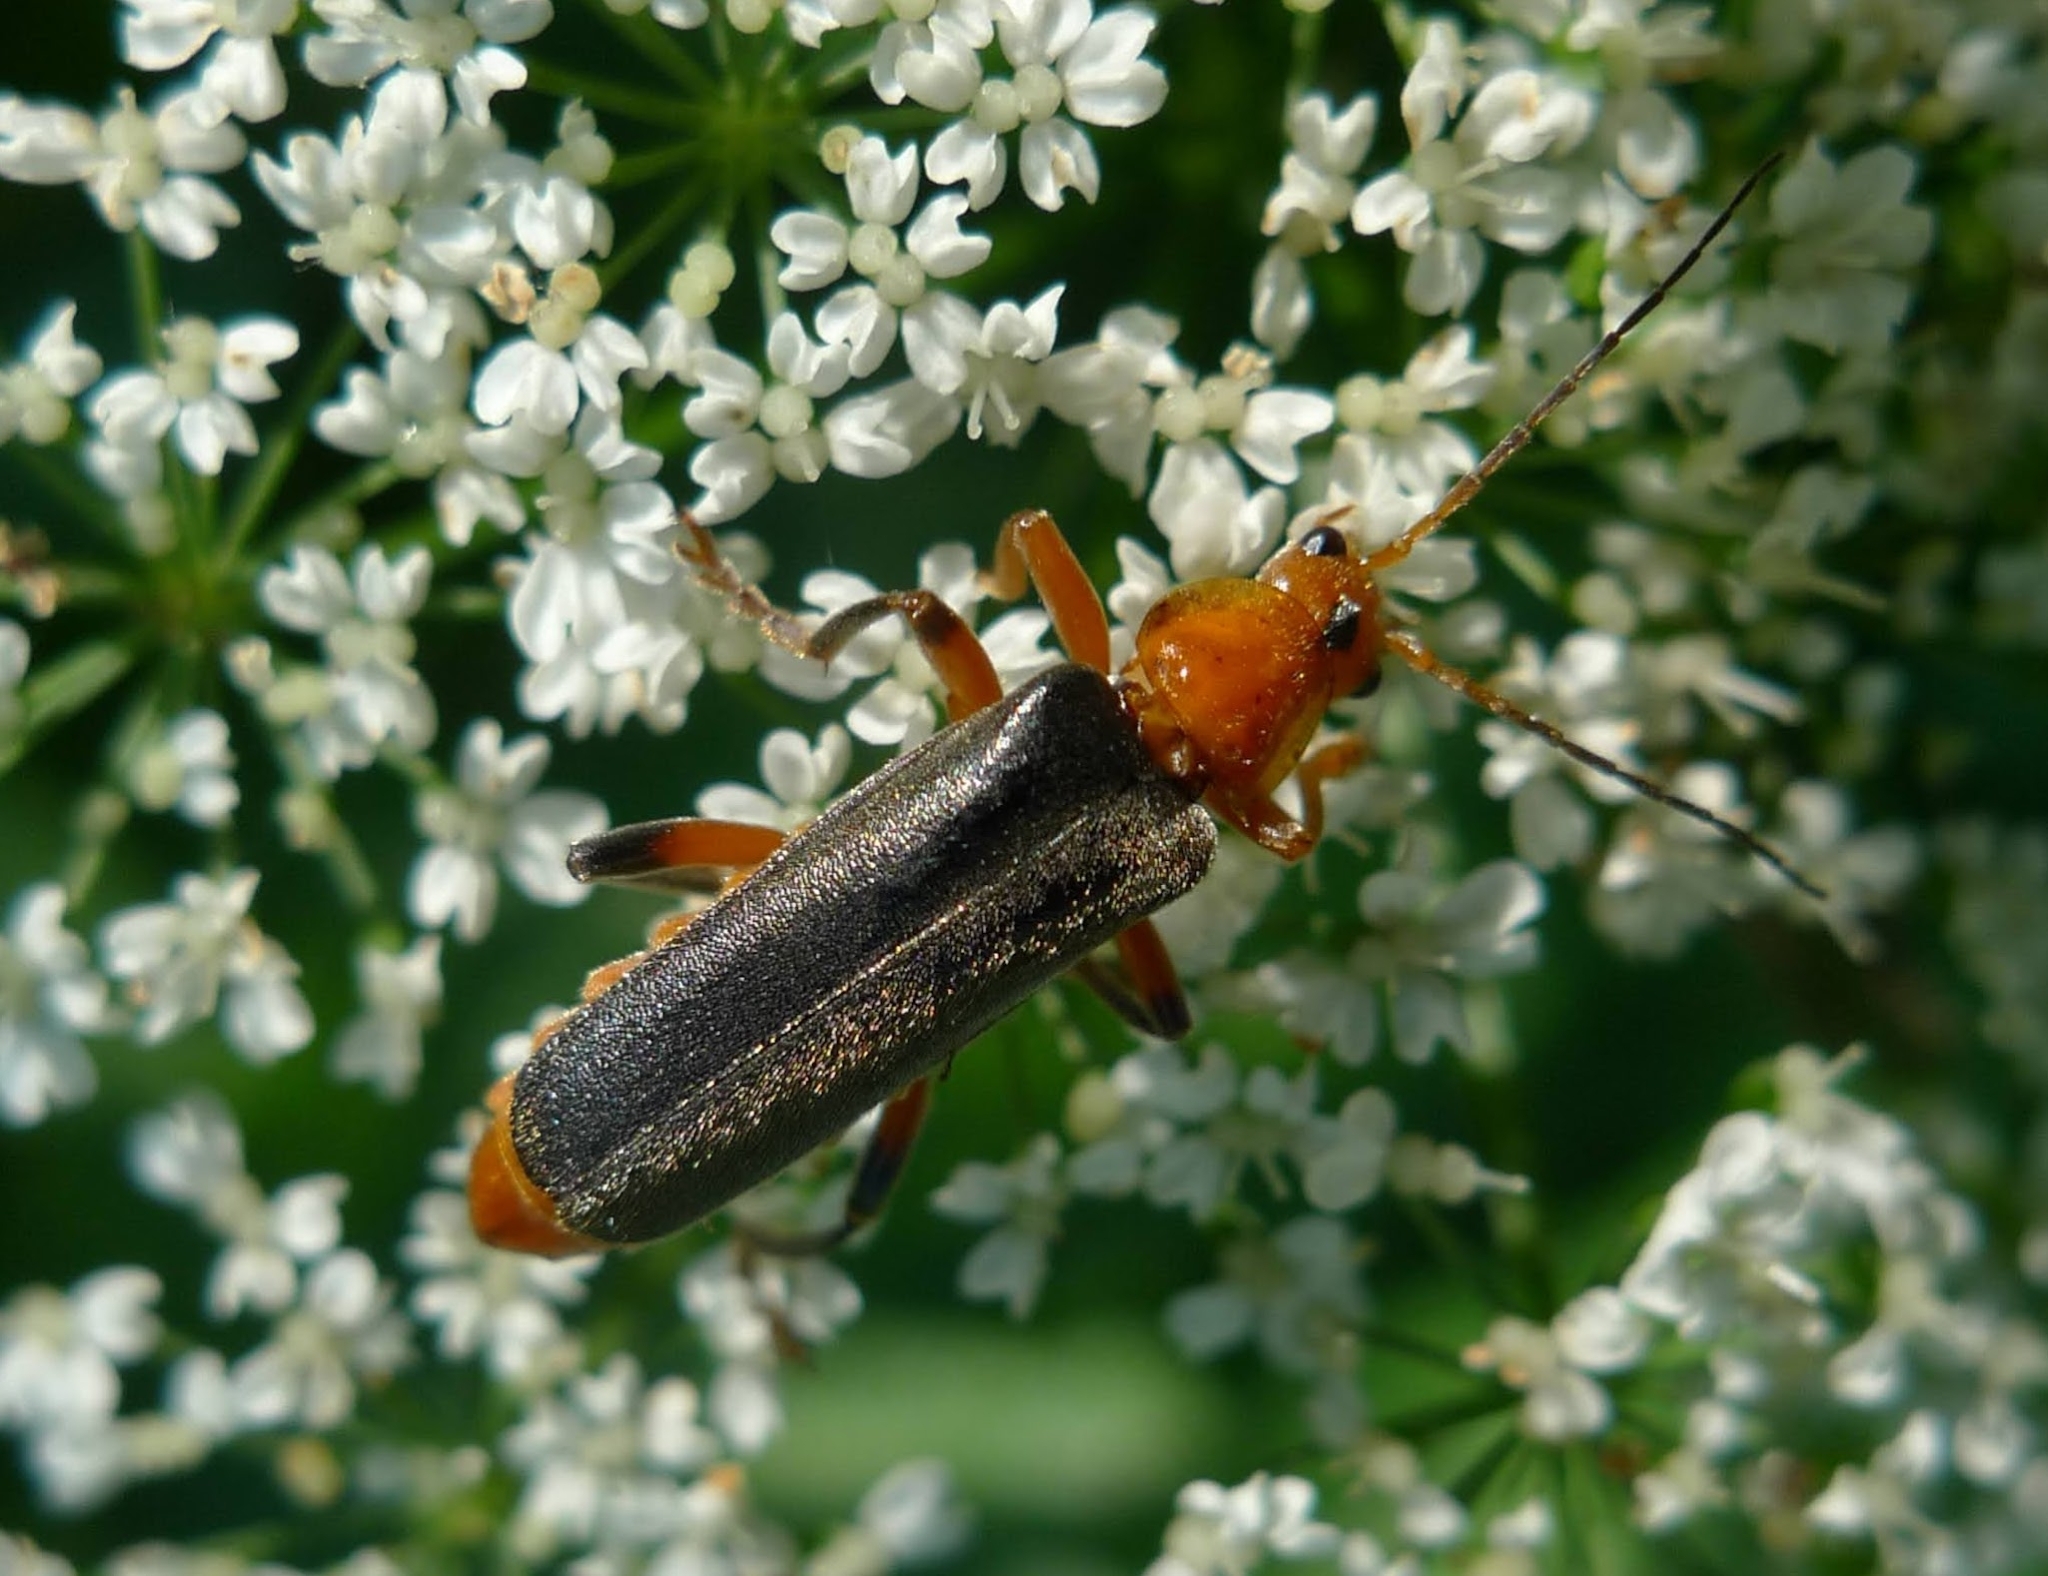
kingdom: Animalia
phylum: Arthropoda
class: Insecta
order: Coleoptera
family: Cantharidae
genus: Cantharis
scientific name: Cantharis livida
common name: Livid soldier beetle
